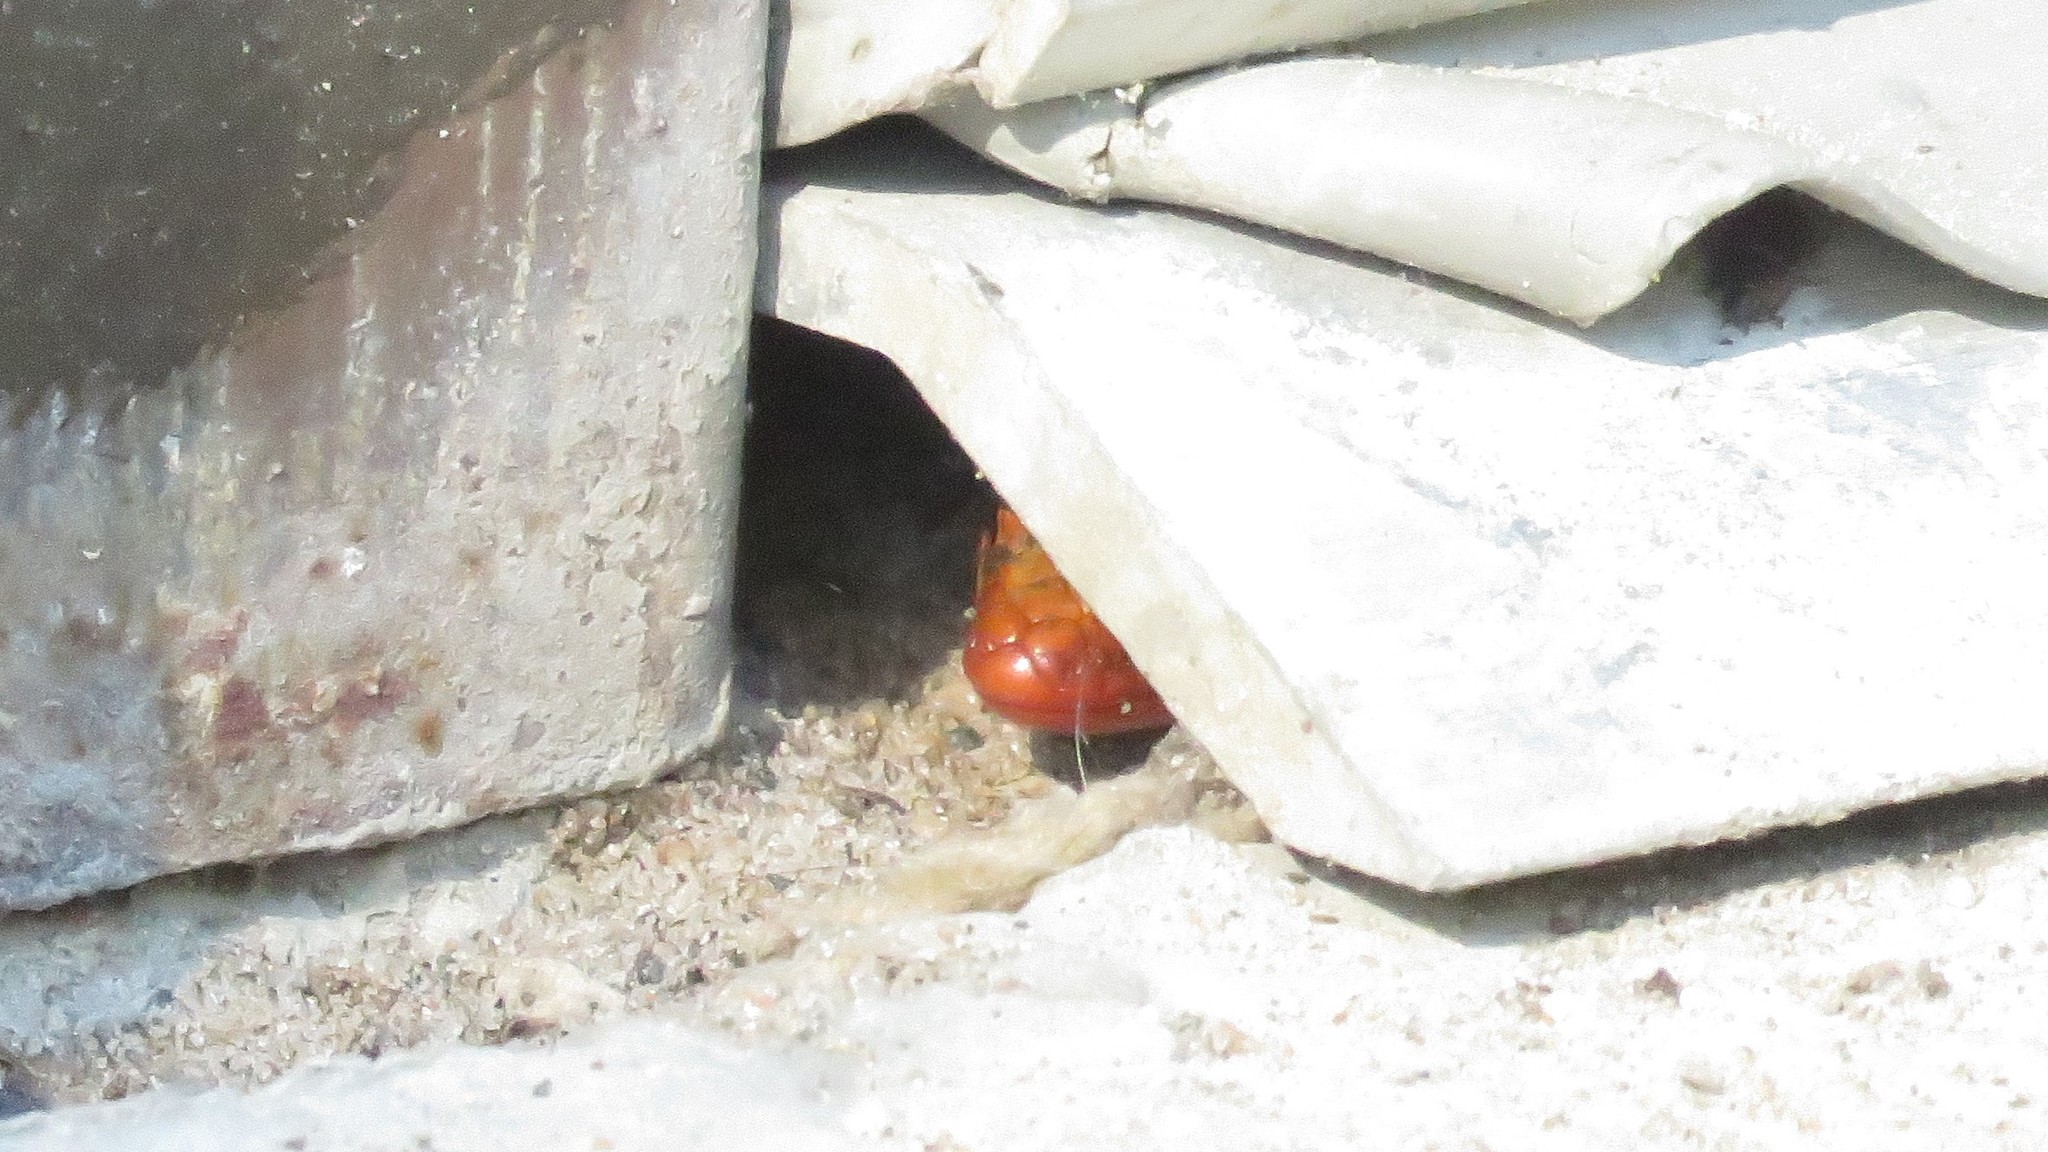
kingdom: Animalia
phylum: Chordata
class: Squamata
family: Scincidae
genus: Plestiodon
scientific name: Plestiodon fasciatus
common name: Five-lined skink
